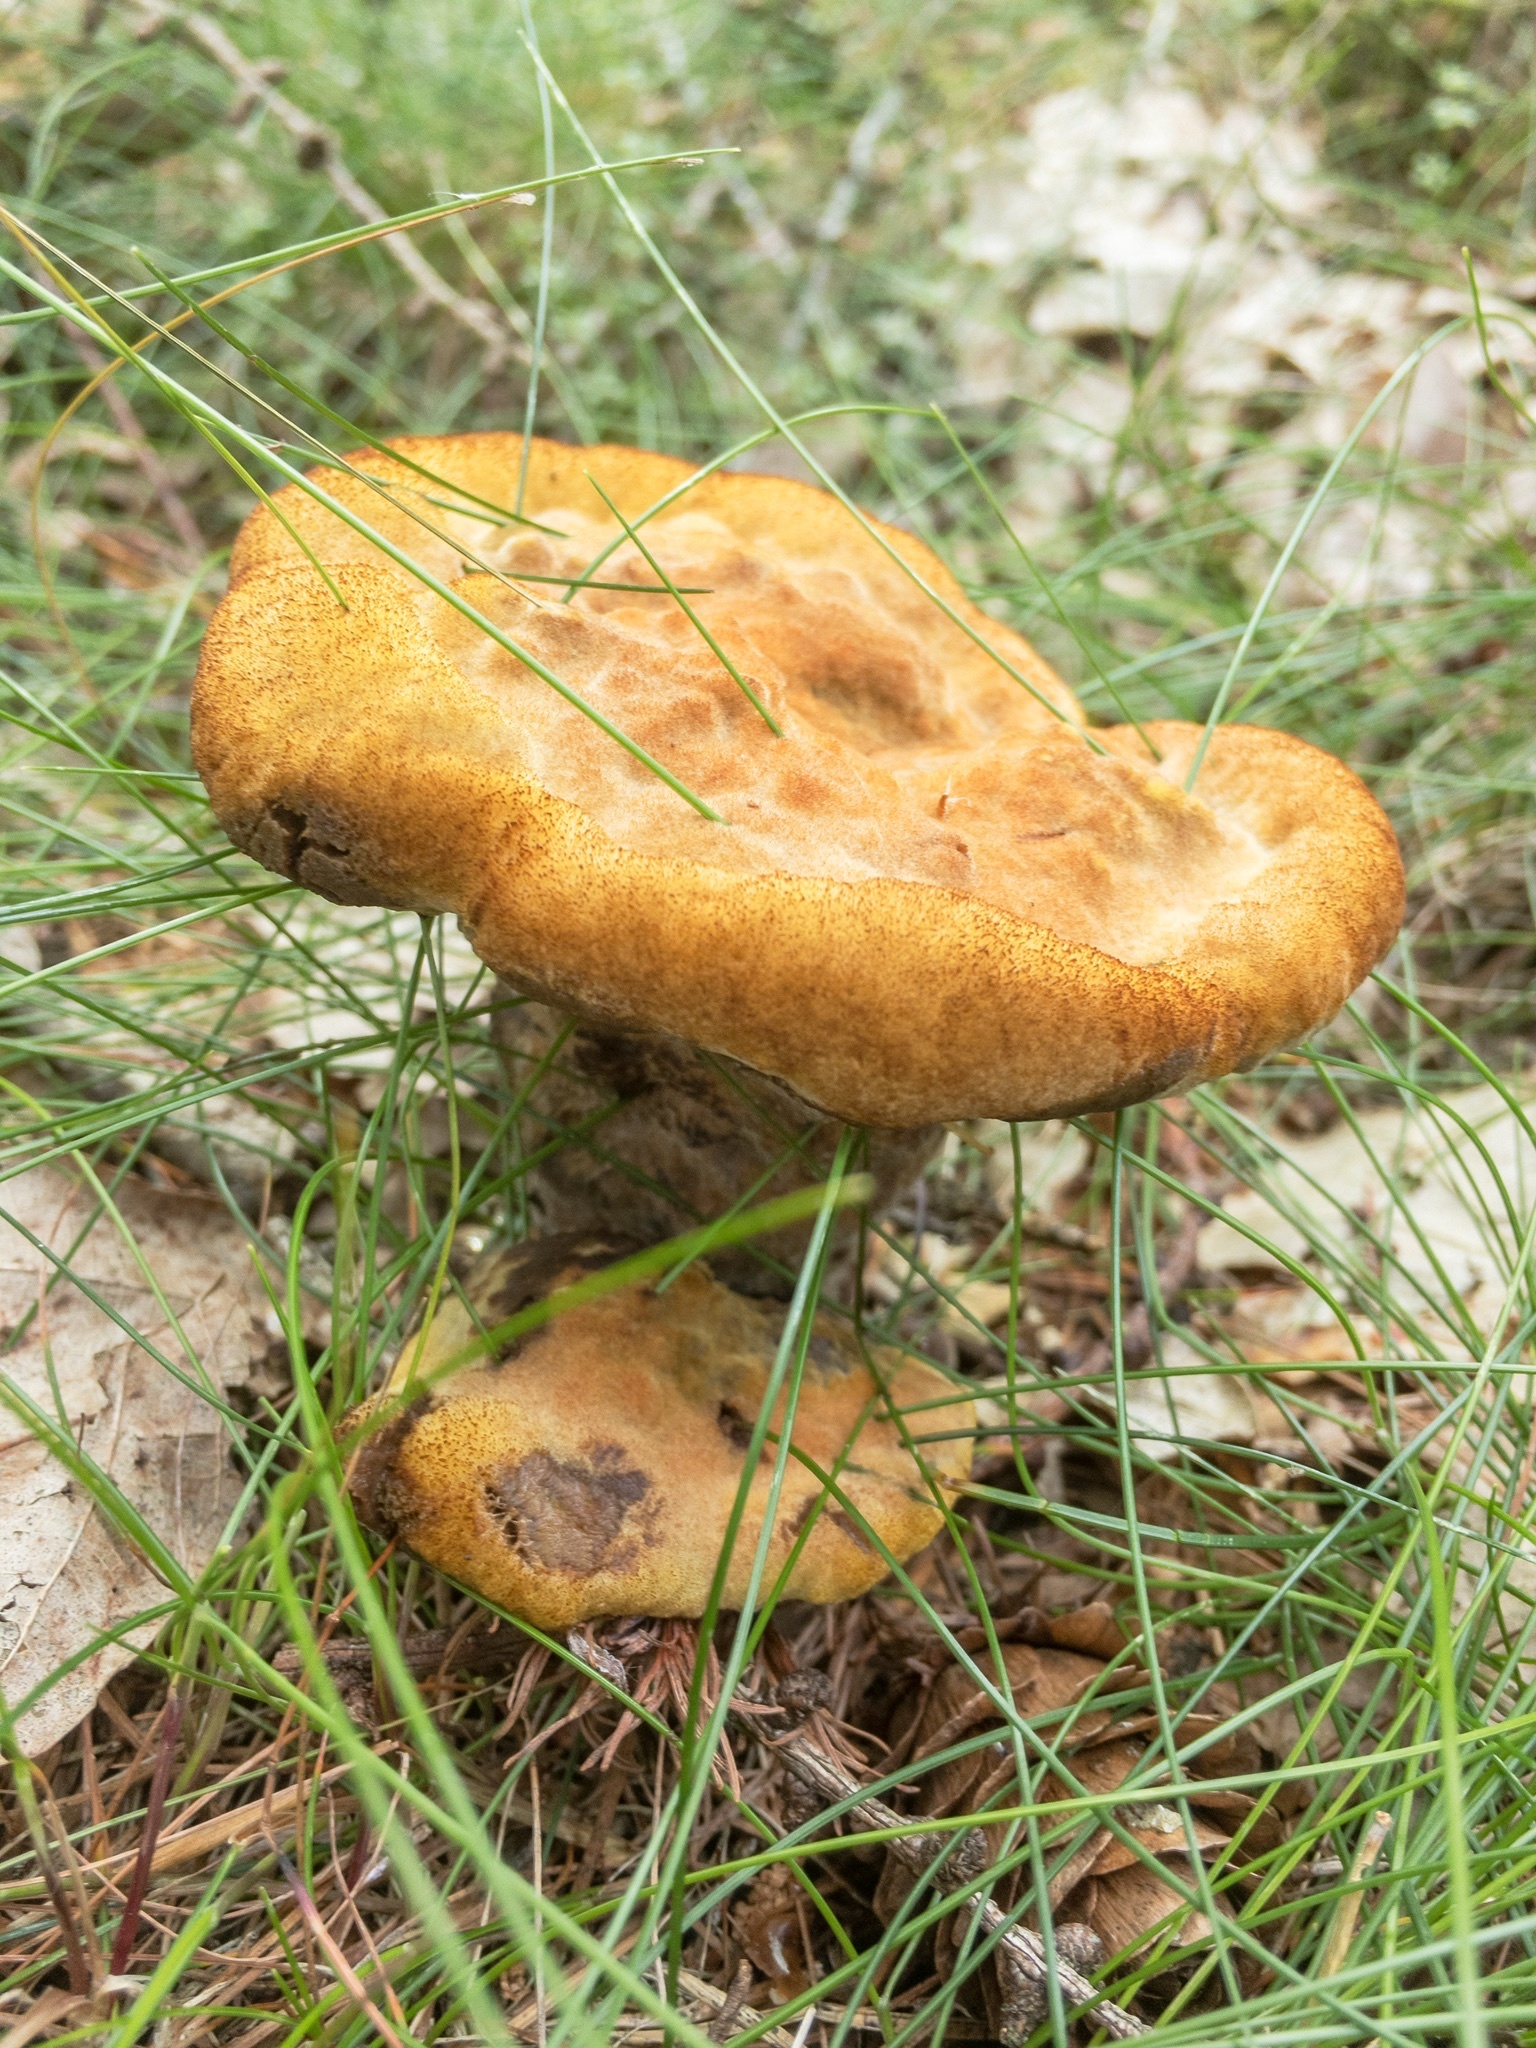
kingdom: Fungi
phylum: Basidiomycota
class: Agaricomycetes
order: Polyporales
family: Laetiporaceae
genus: Phaeolus
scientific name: Phaeolus schweinitzii
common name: Dyer's mazegill
